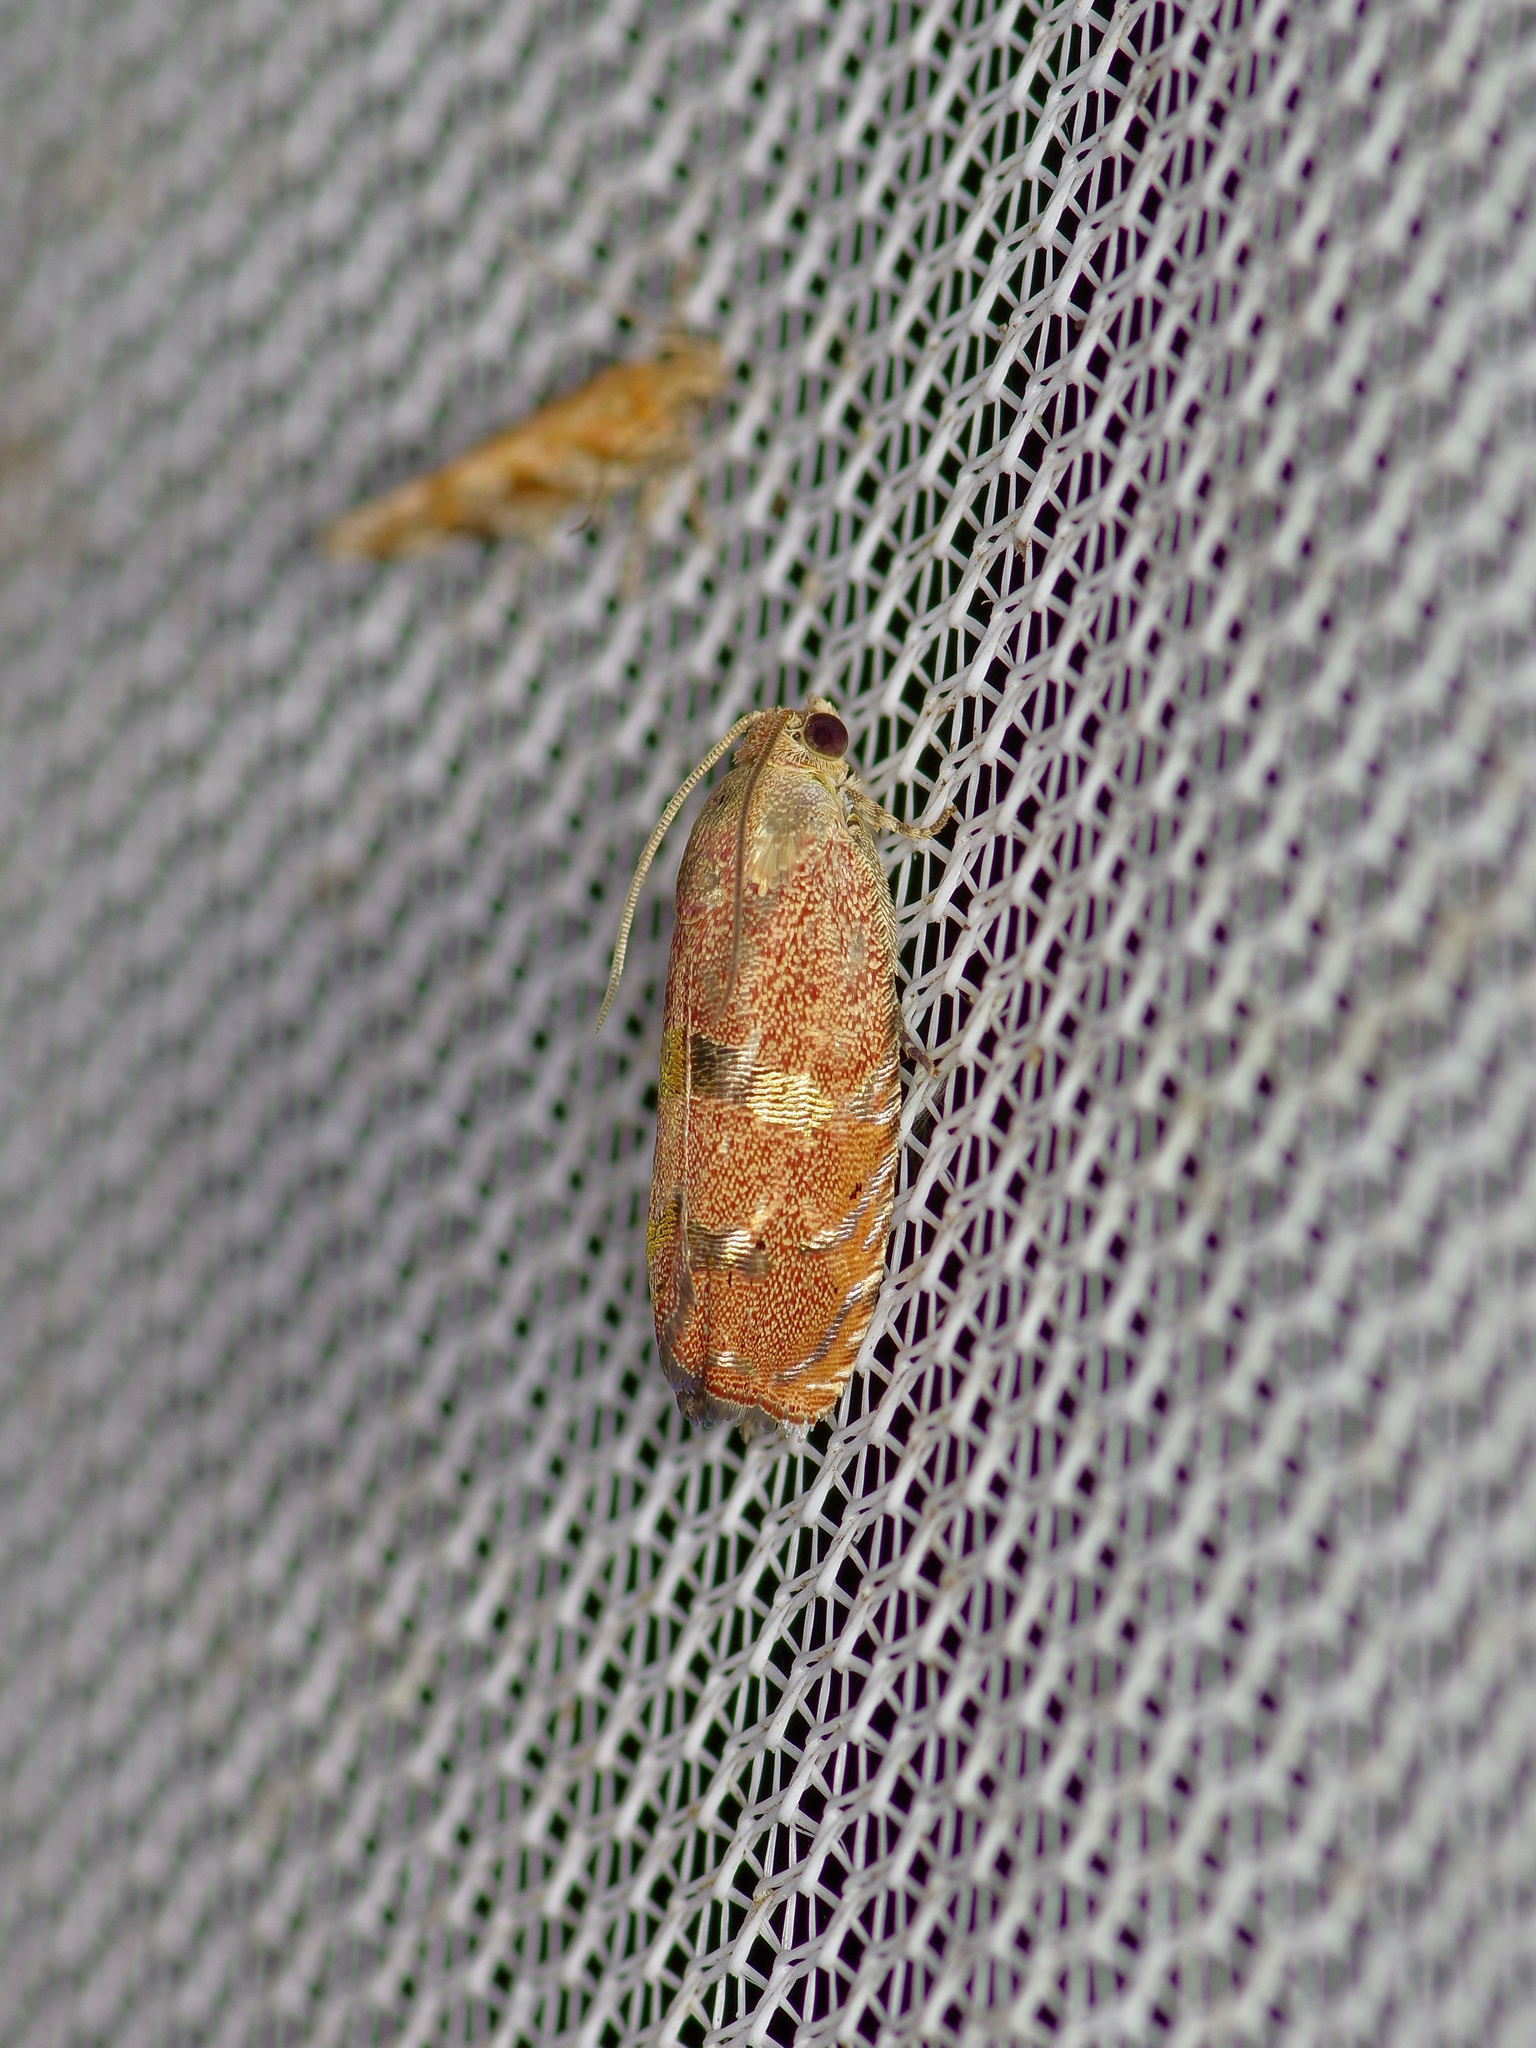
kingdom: Animalia
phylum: Arthropoda
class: Insecta
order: Lepidoptera
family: Tortricidae
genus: Cydia
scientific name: Cydia latiferreana
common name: Filbertworm moth
